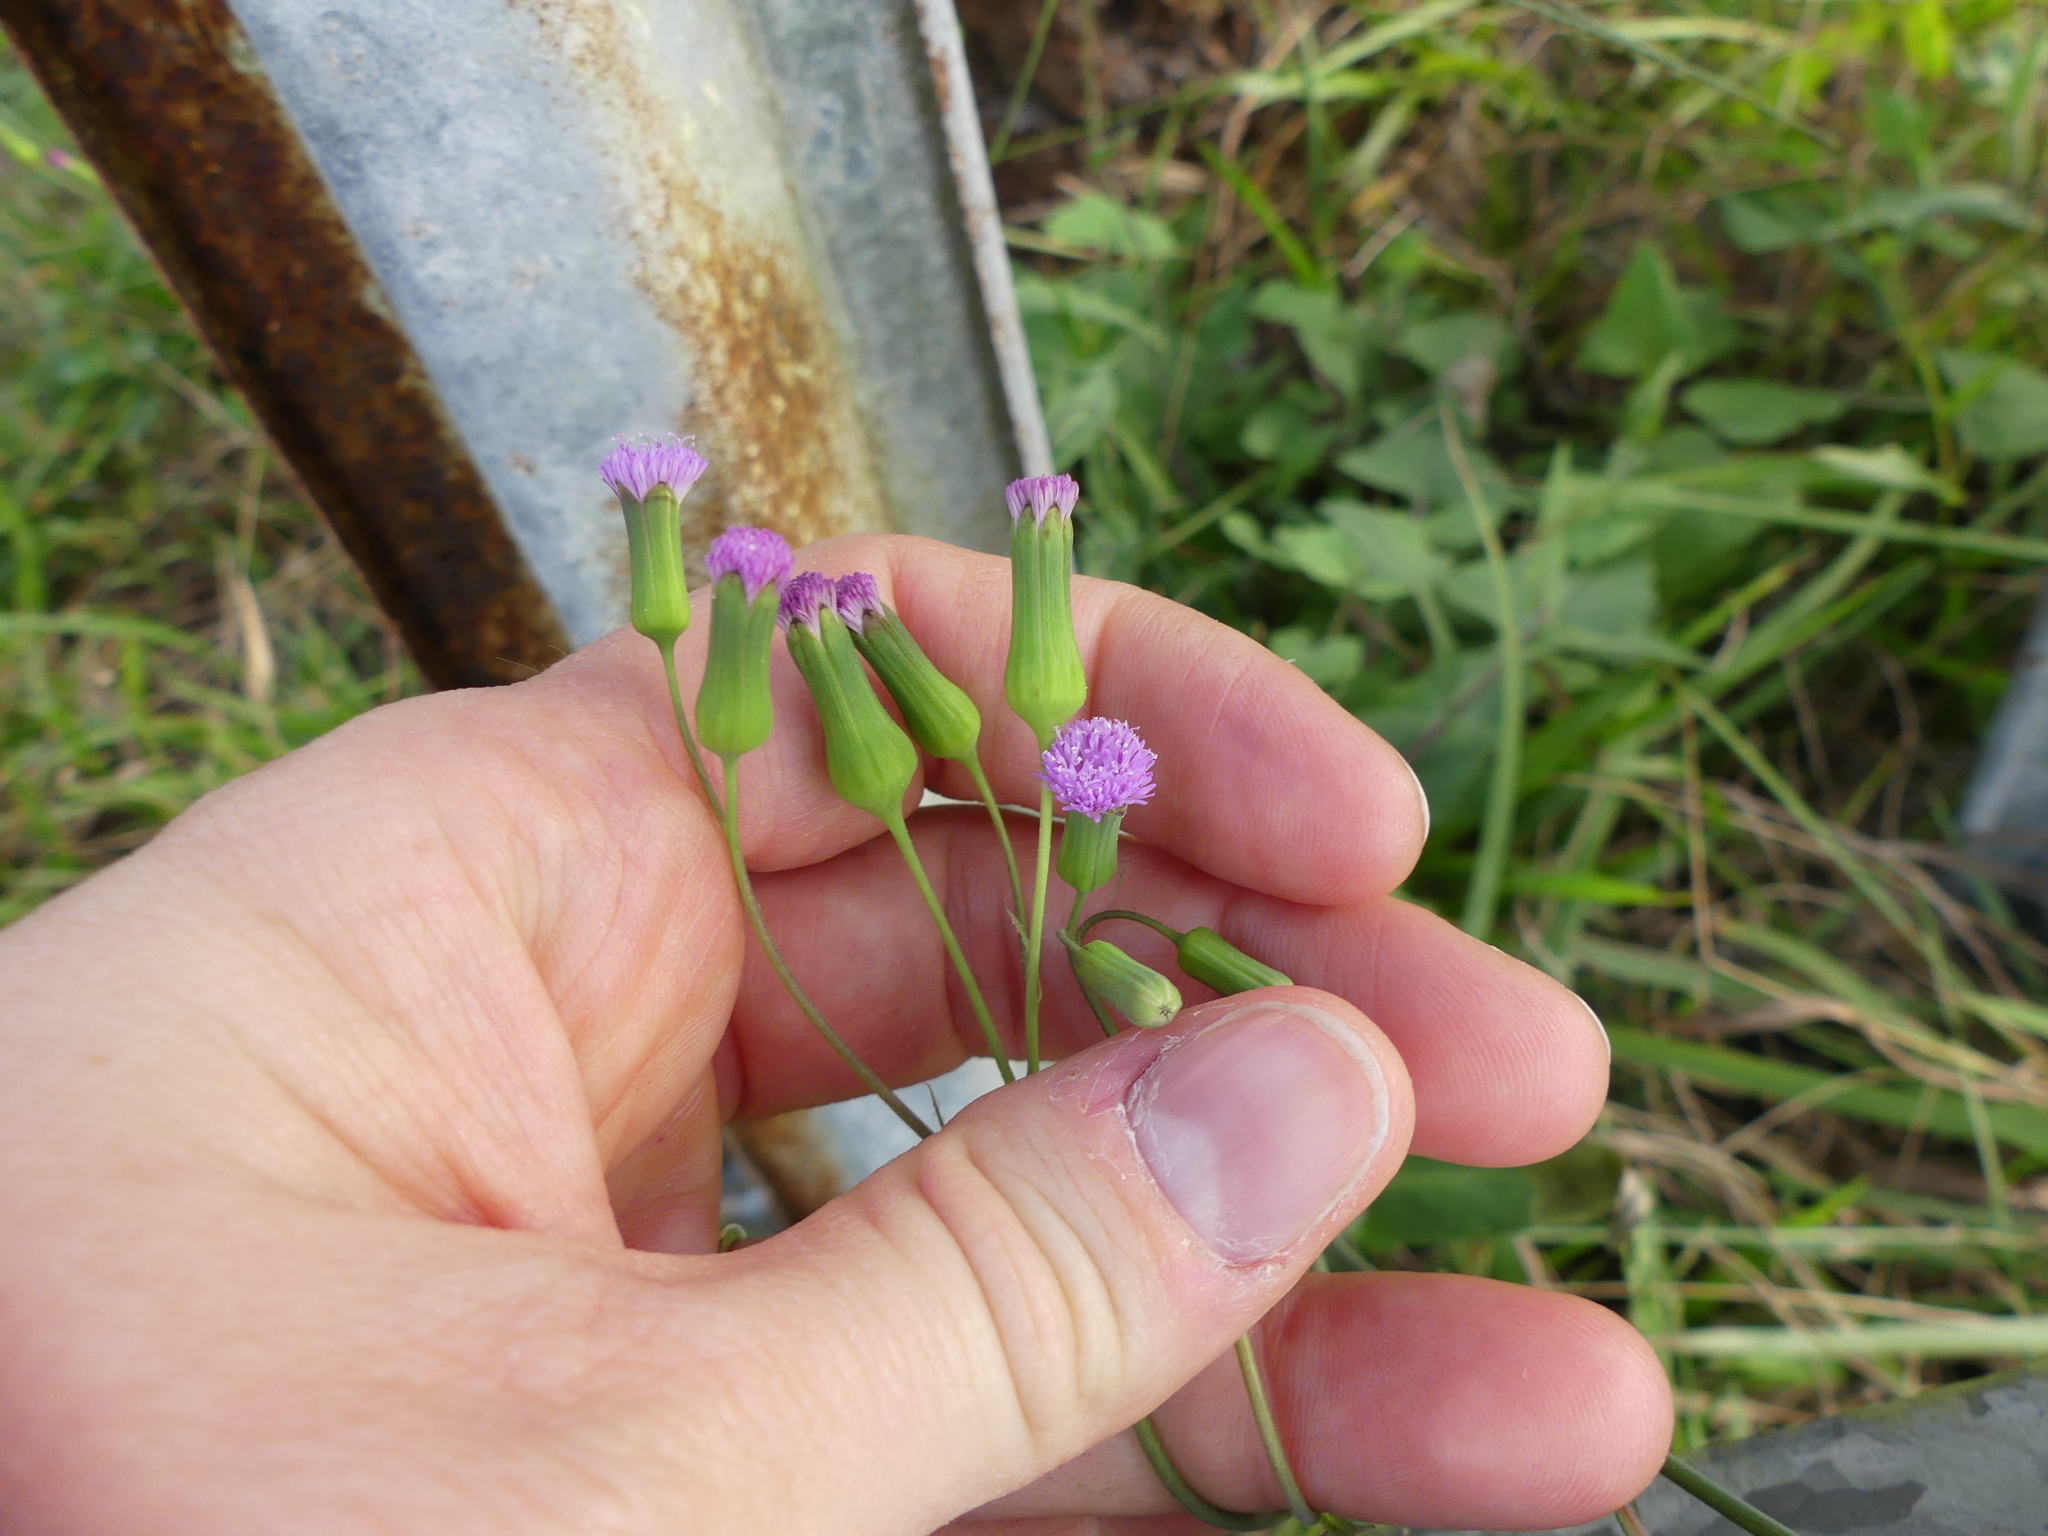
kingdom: Plantae
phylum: Tracheophyta
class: Magnoliopsida
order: Asterales
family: Asteraceae
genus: Emilia
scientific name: Emilia sonchifolia
